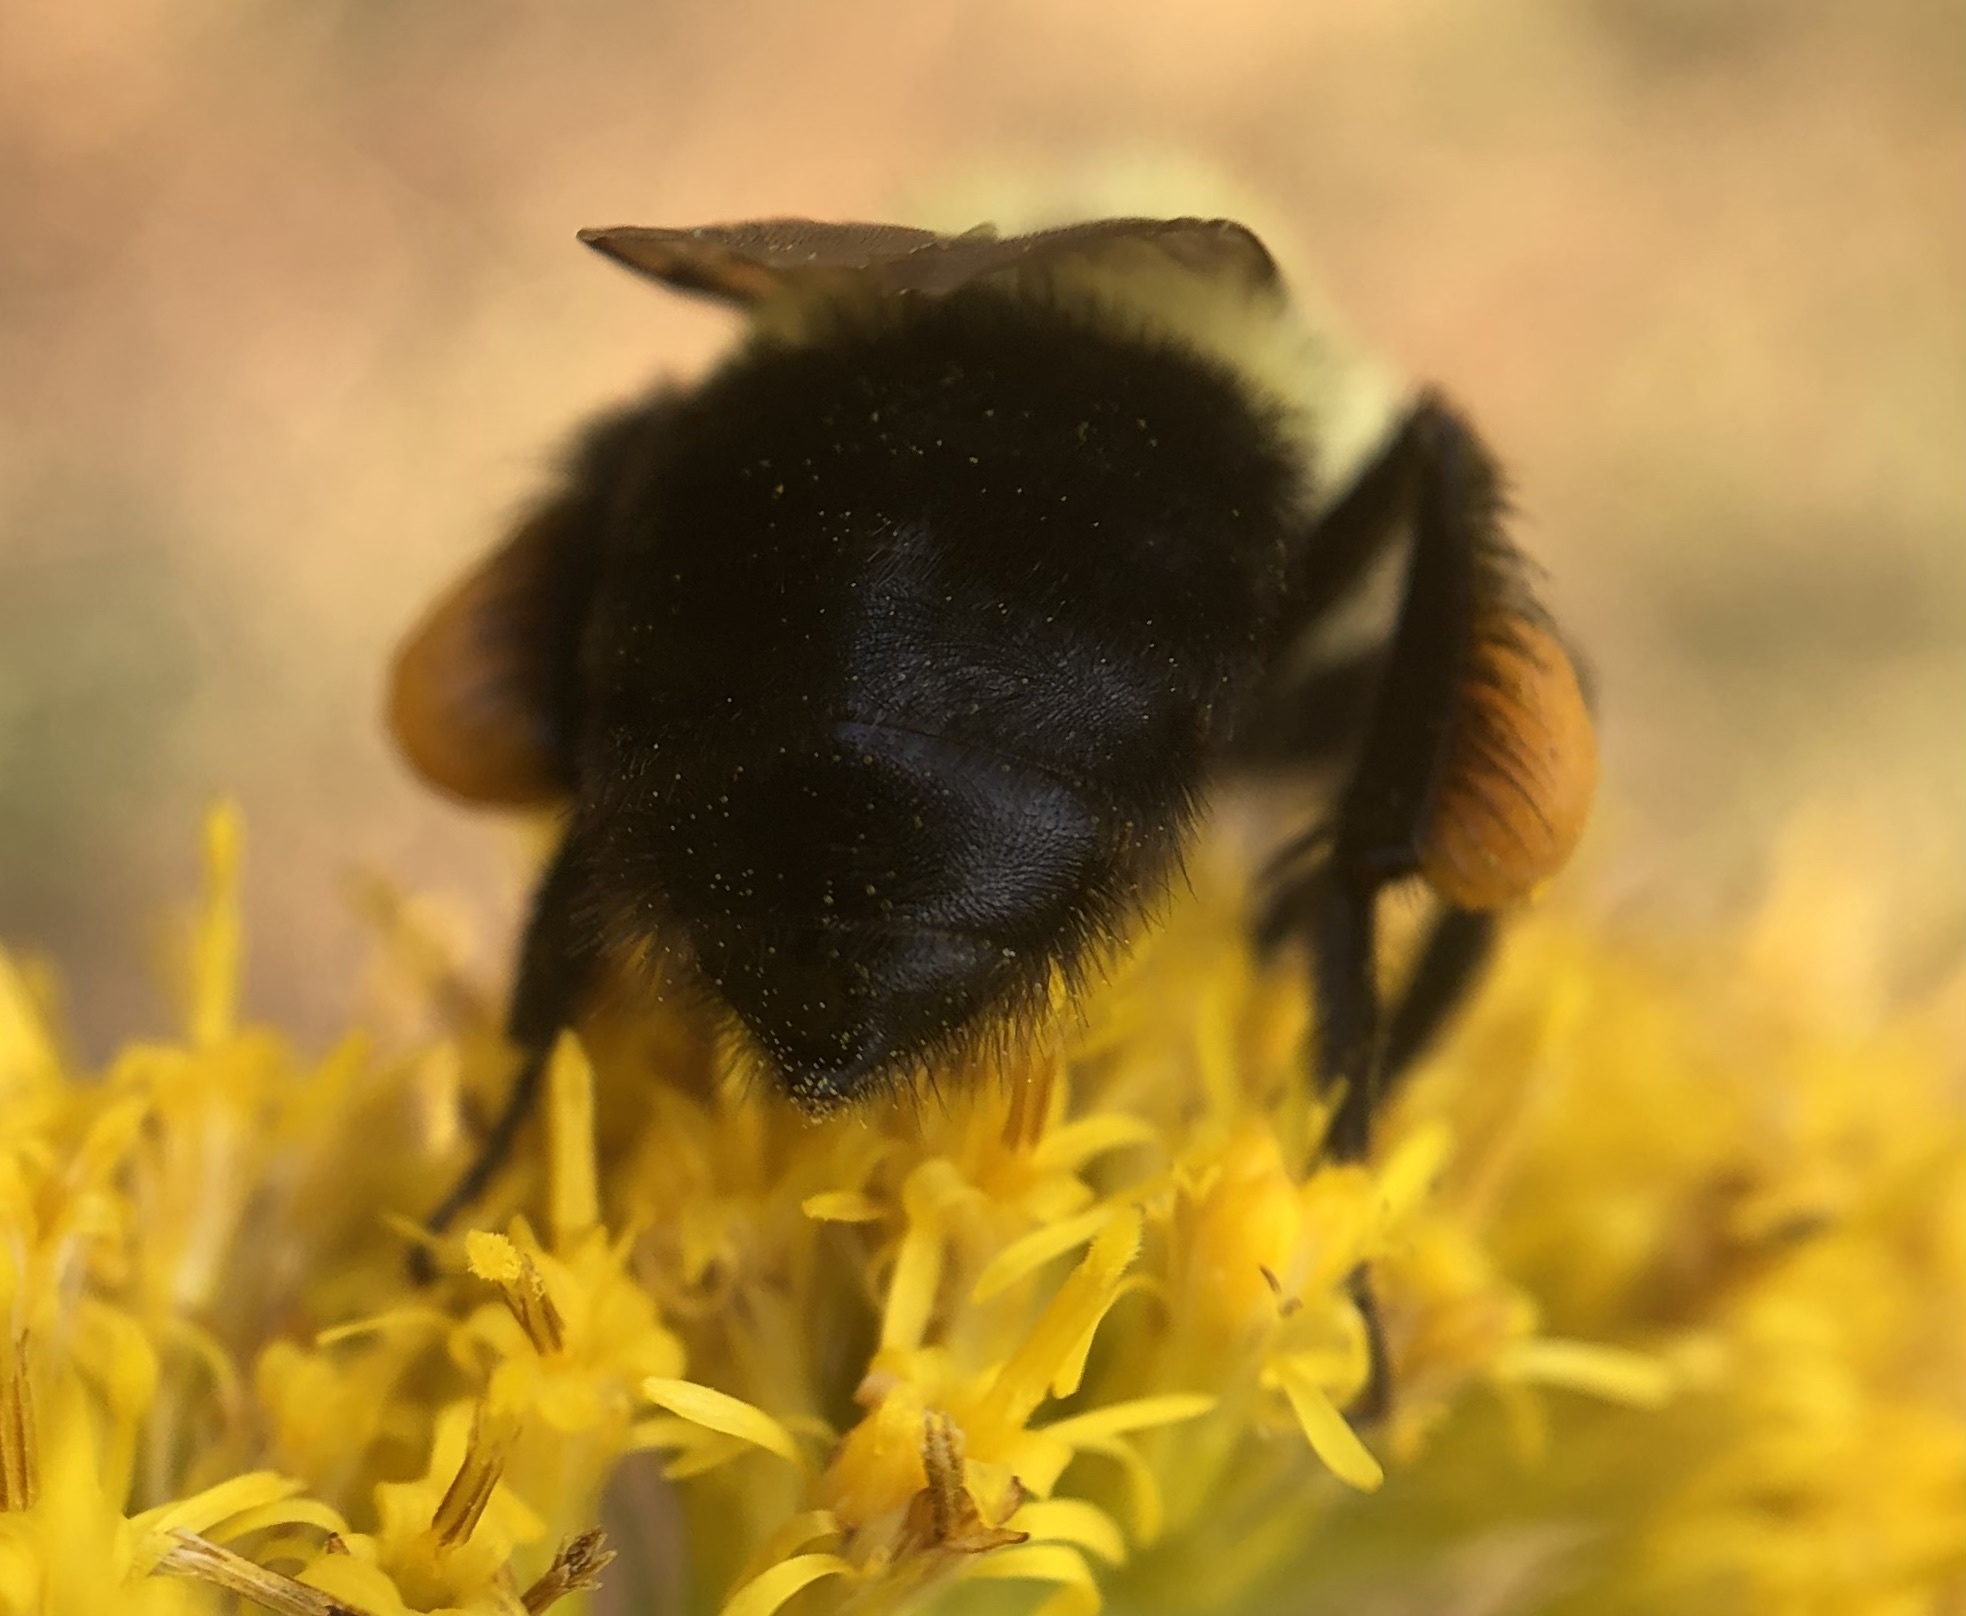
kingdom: Animalia
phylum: Arthropoda
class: Insecta
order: Hymenoptera
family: Apidae
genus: Bombus
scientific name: Bombus impatiens
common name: Common eastern bumble bee
